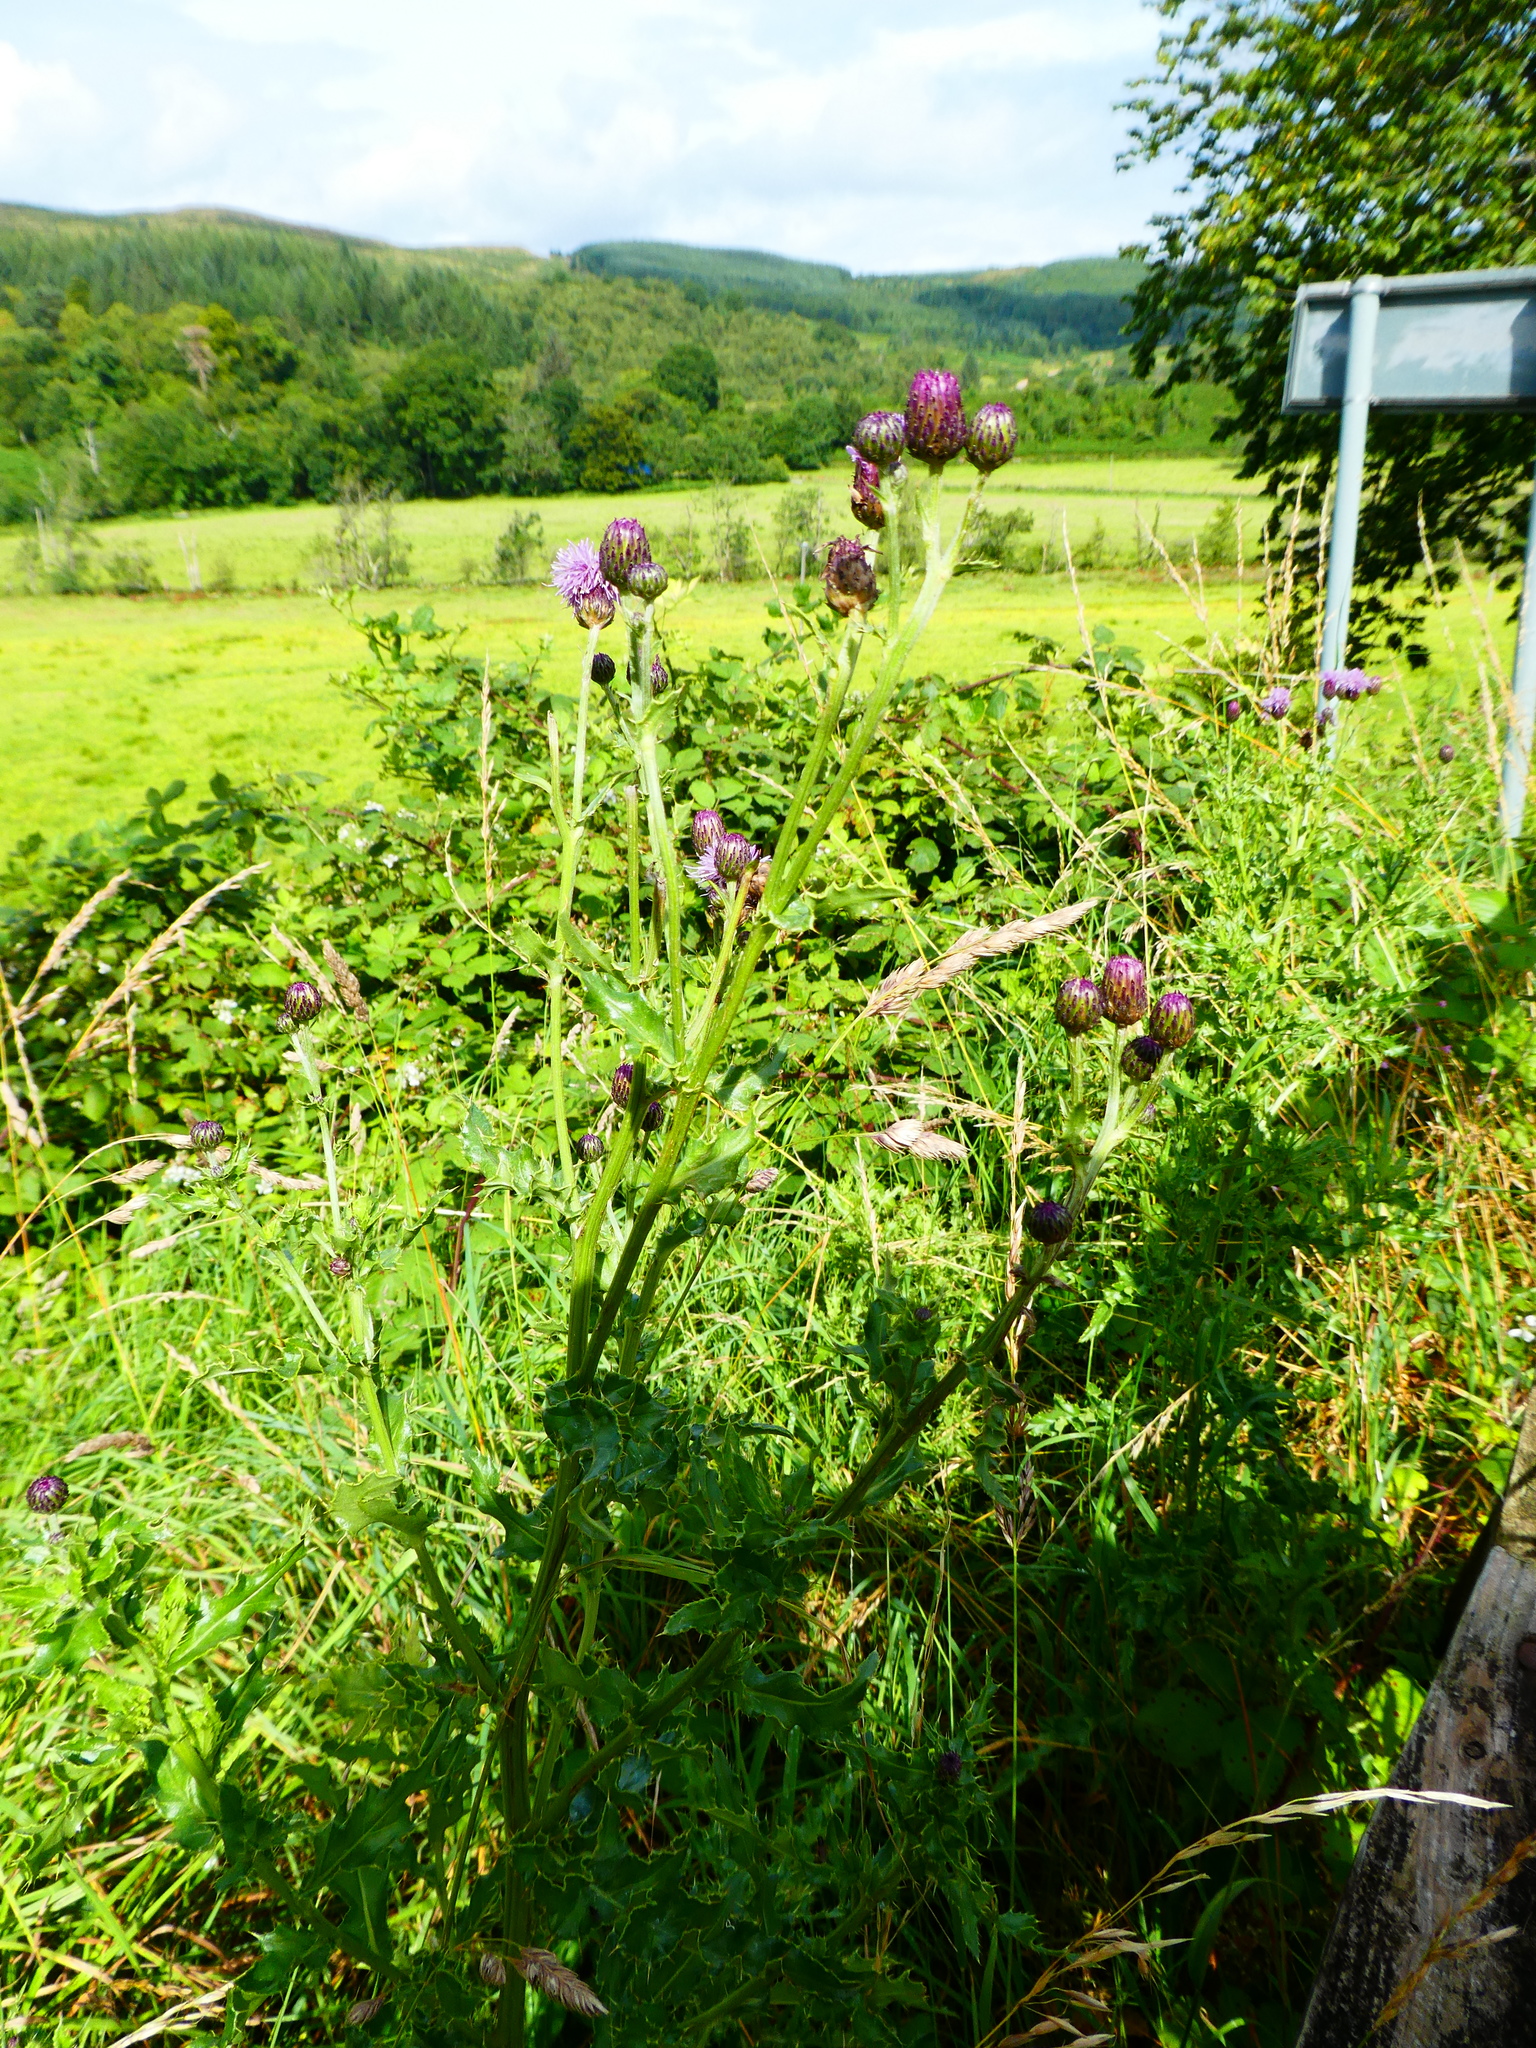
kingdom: Plantae
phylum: Tracheophyta
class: Magnoliopsida
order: Asterales
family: Asteraceae
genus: Cirsium
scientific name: Cirsium arvense
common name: Creeping thistle
